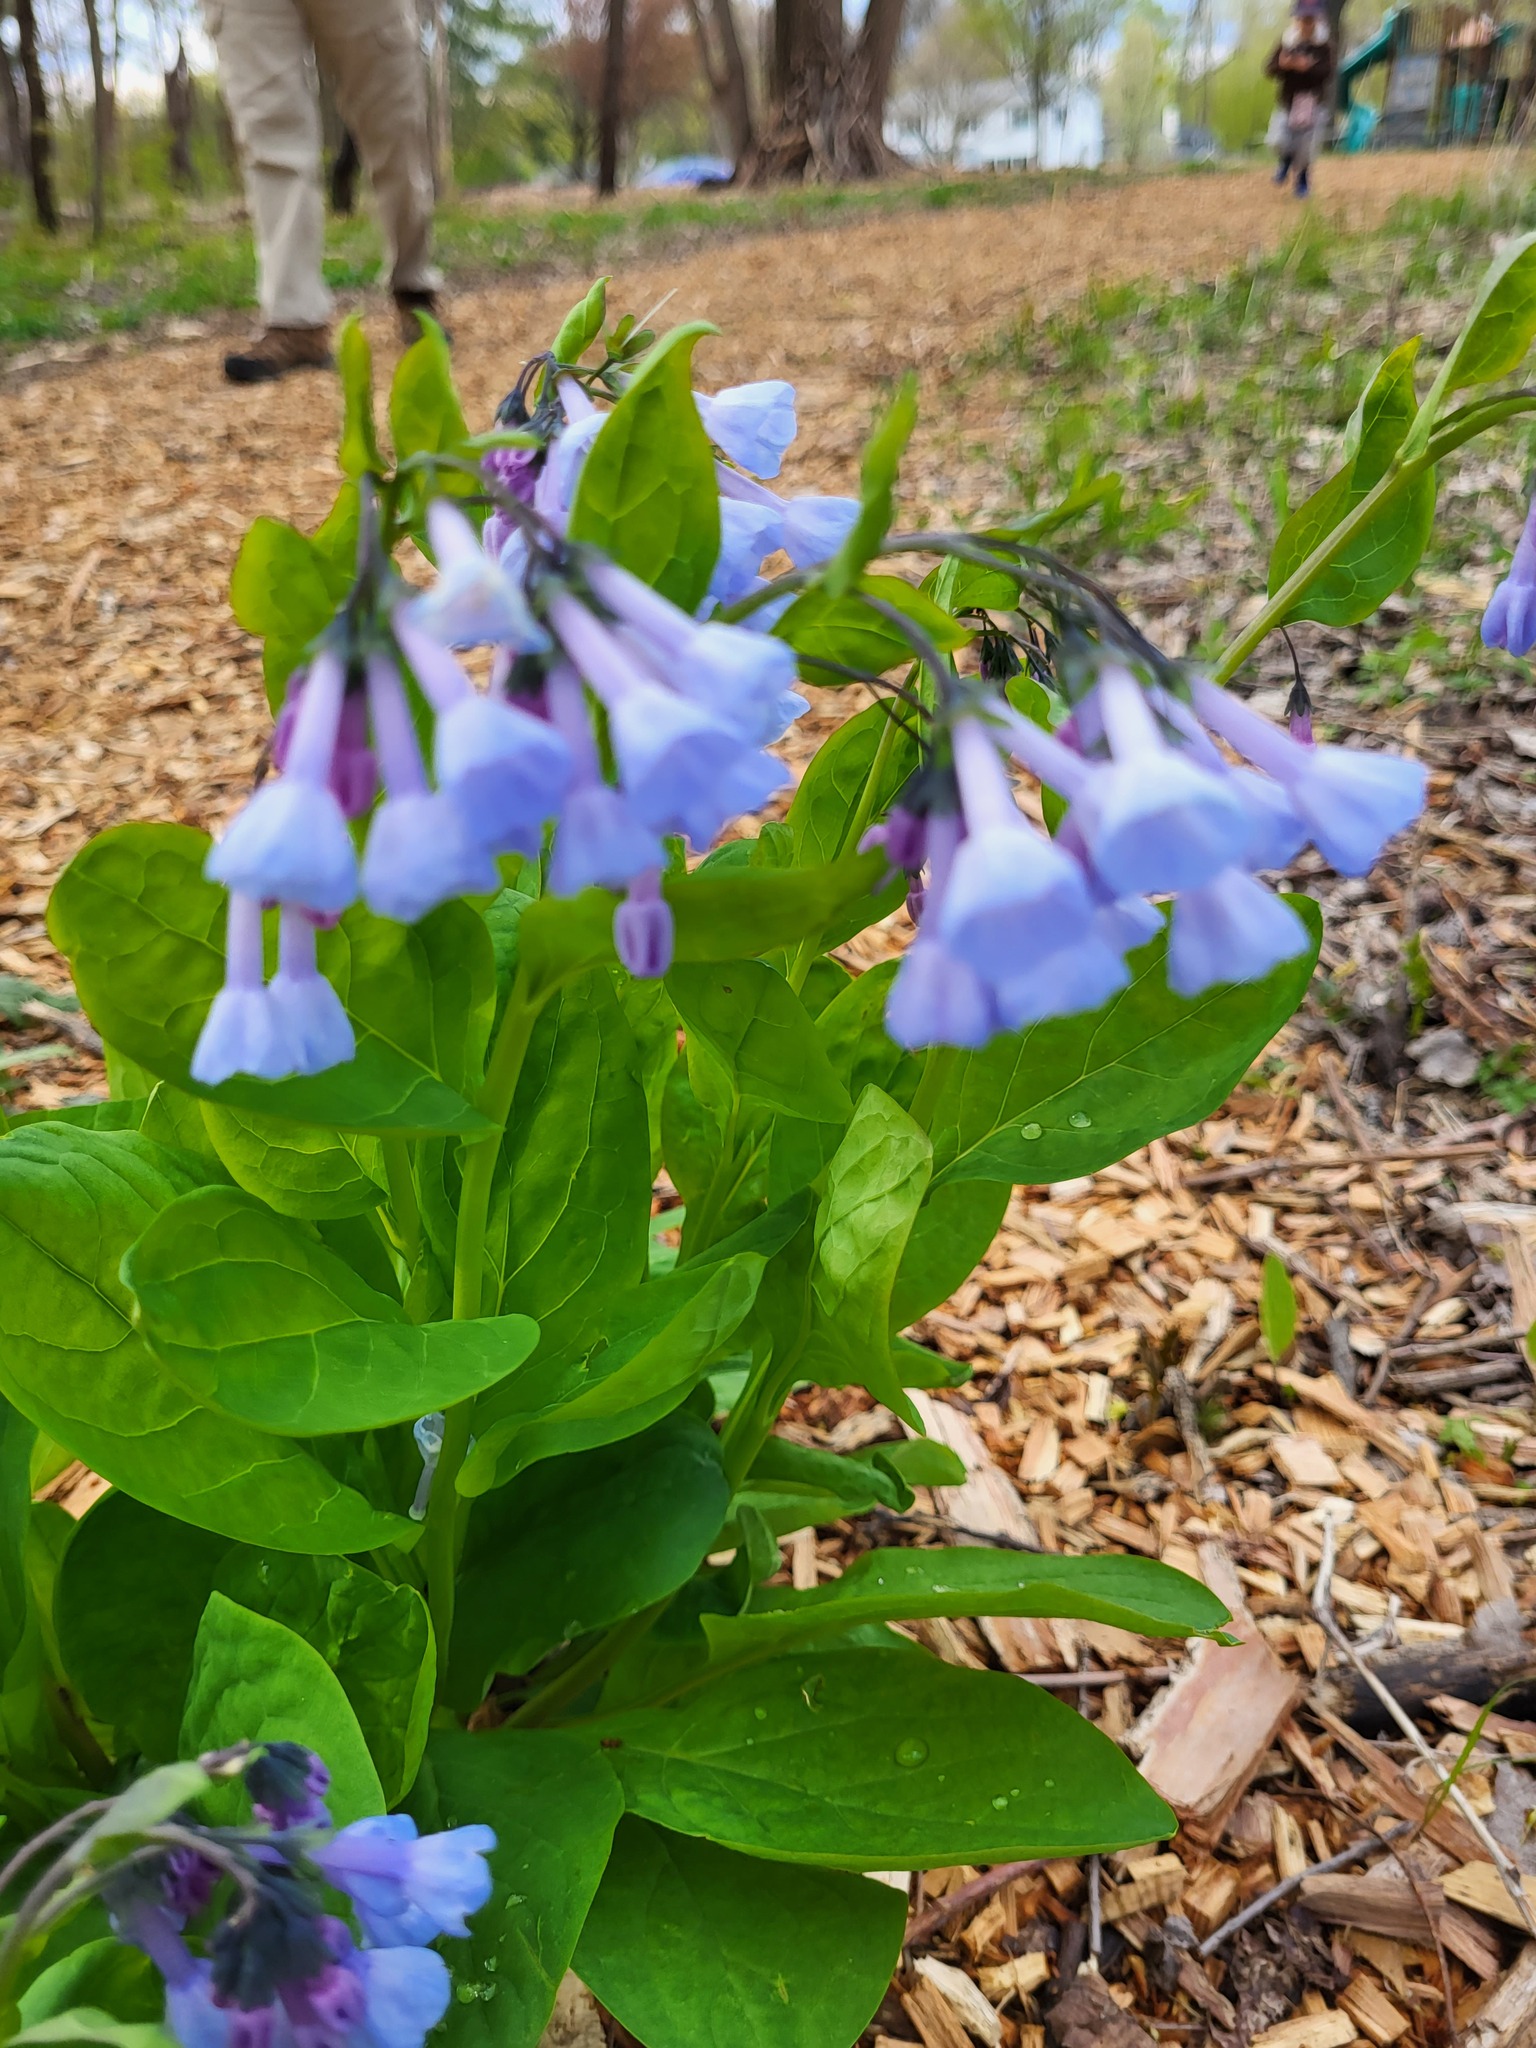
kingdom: Plantae
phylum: Tracheophyta
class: Magnoliopsida
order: Boraginales
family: Boraginaceae
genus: Mertensia
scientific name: Mertensia virginica
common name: Virginia bluebells
